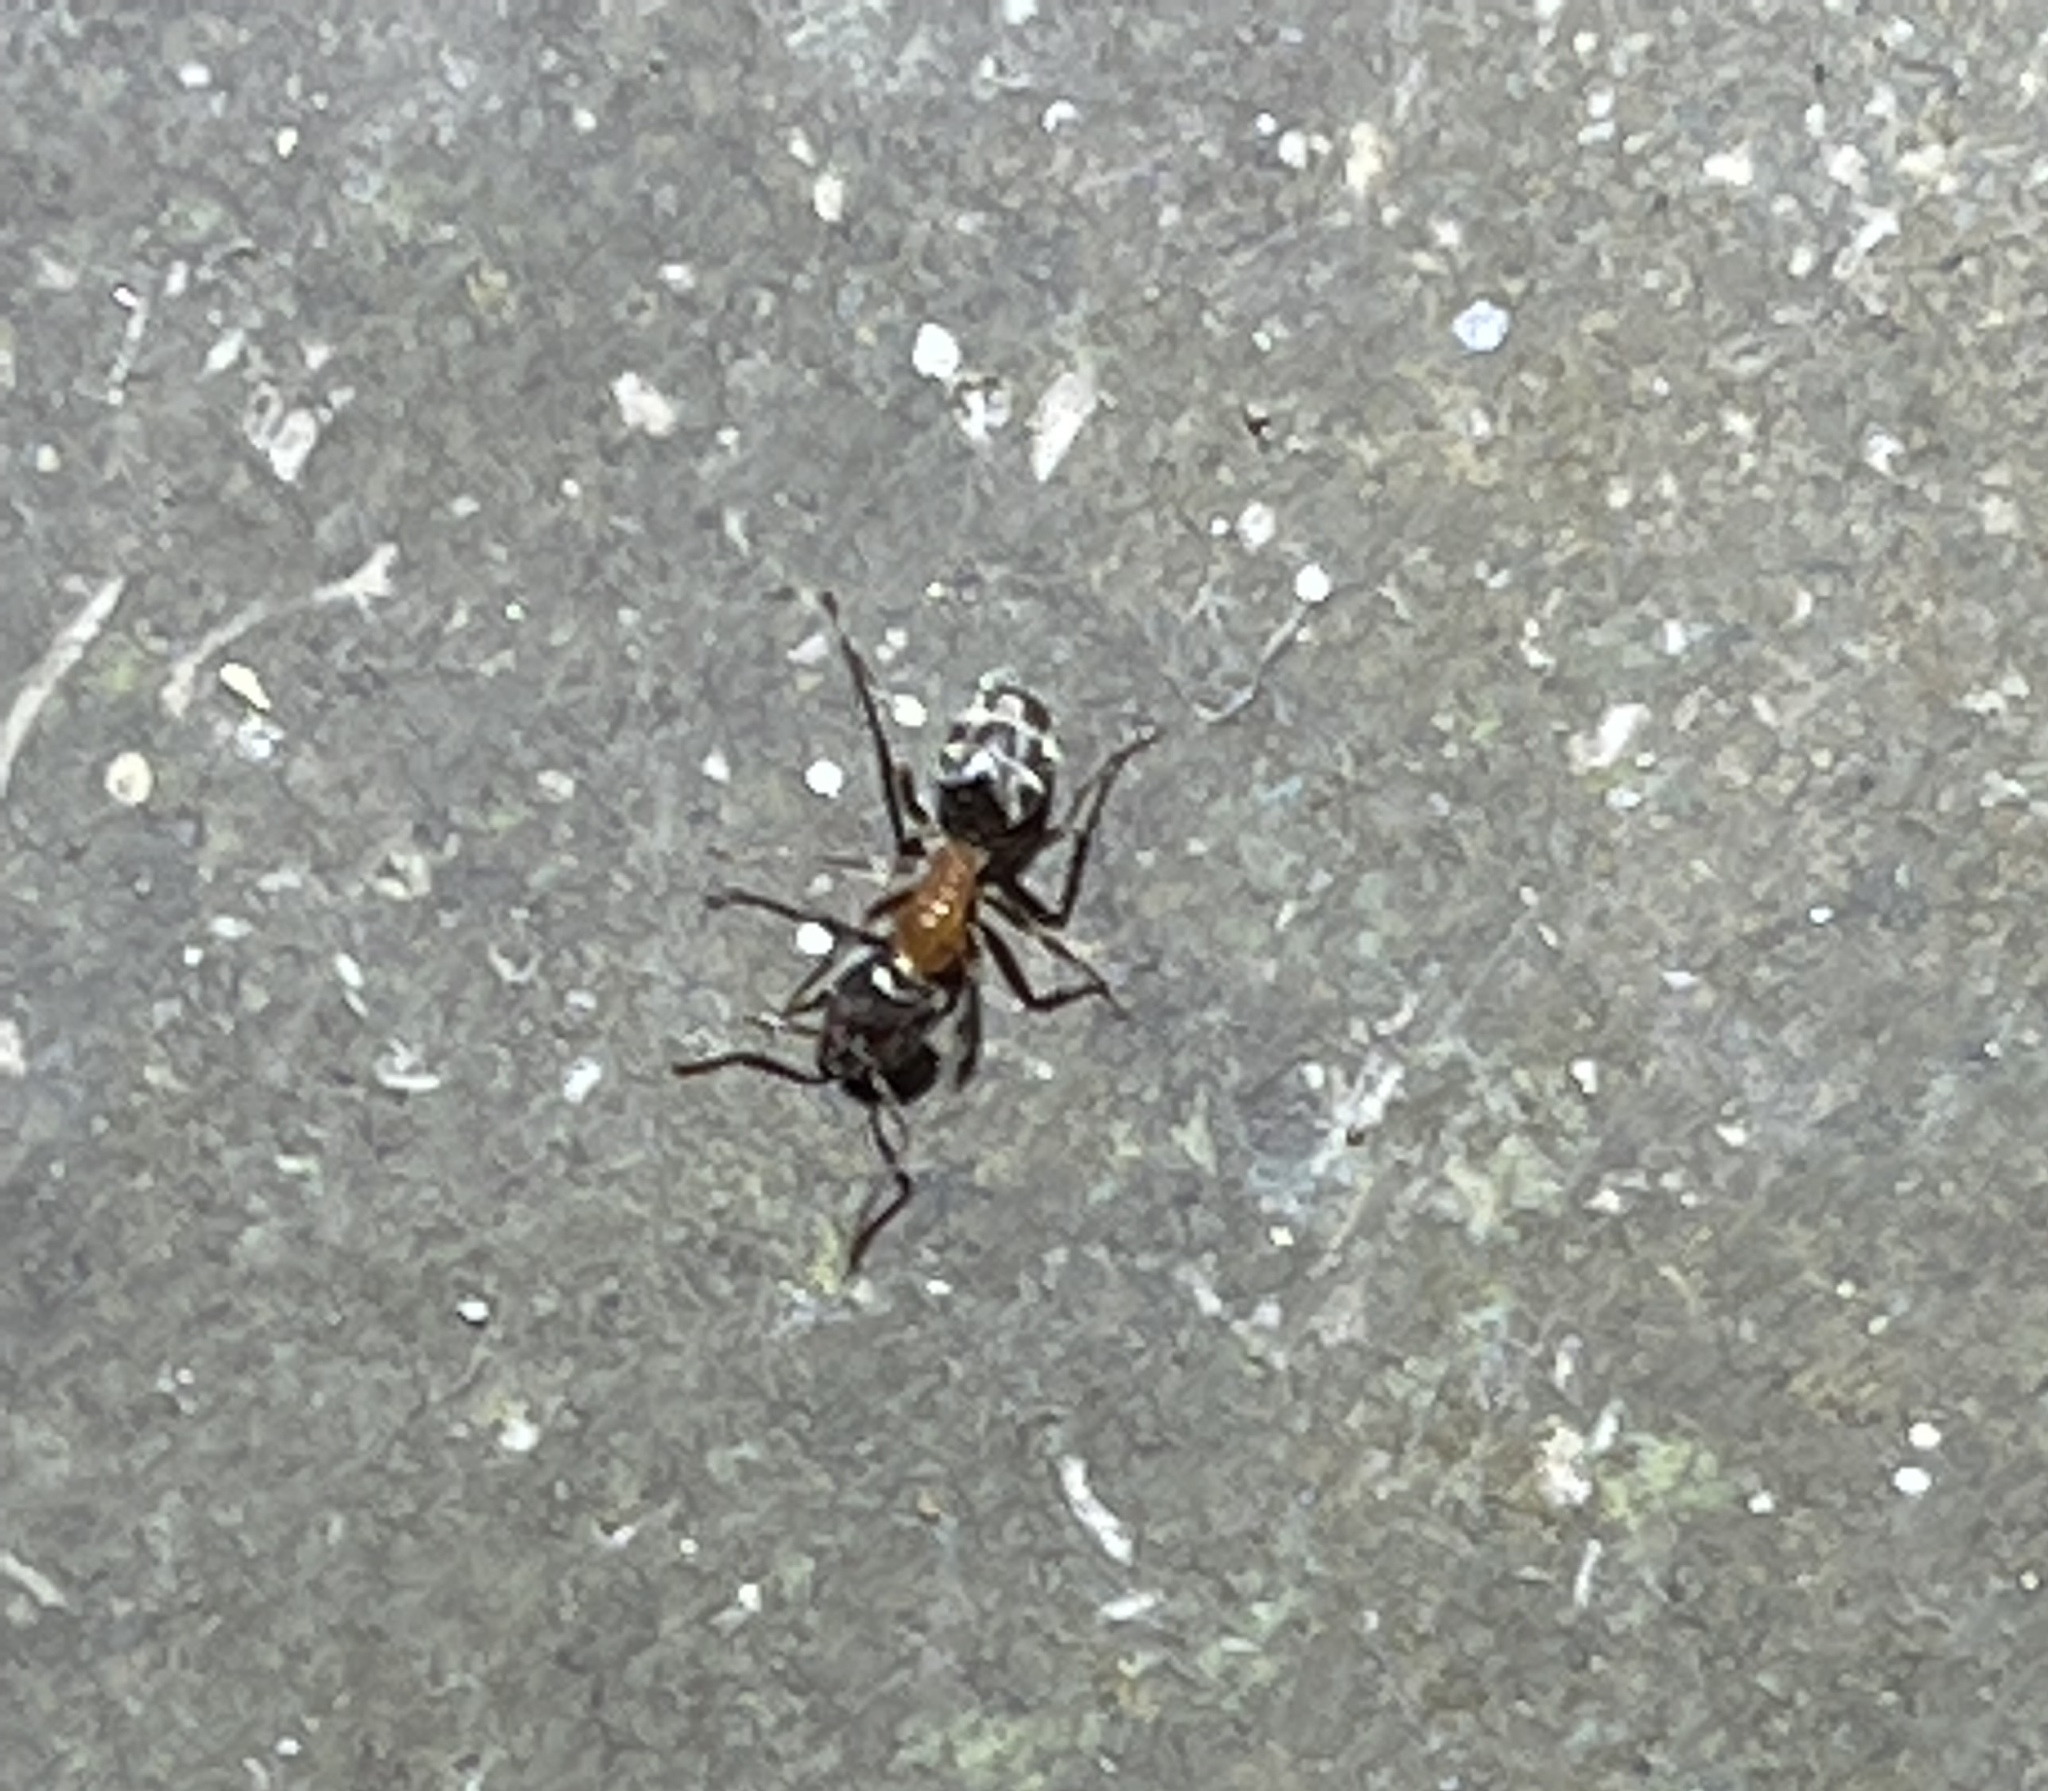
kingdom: Animalia
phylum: Arthropoda
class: Insecta
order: Hymenoptera
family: Formicidae
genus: Liometopum
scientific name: Liometopum occidentale
